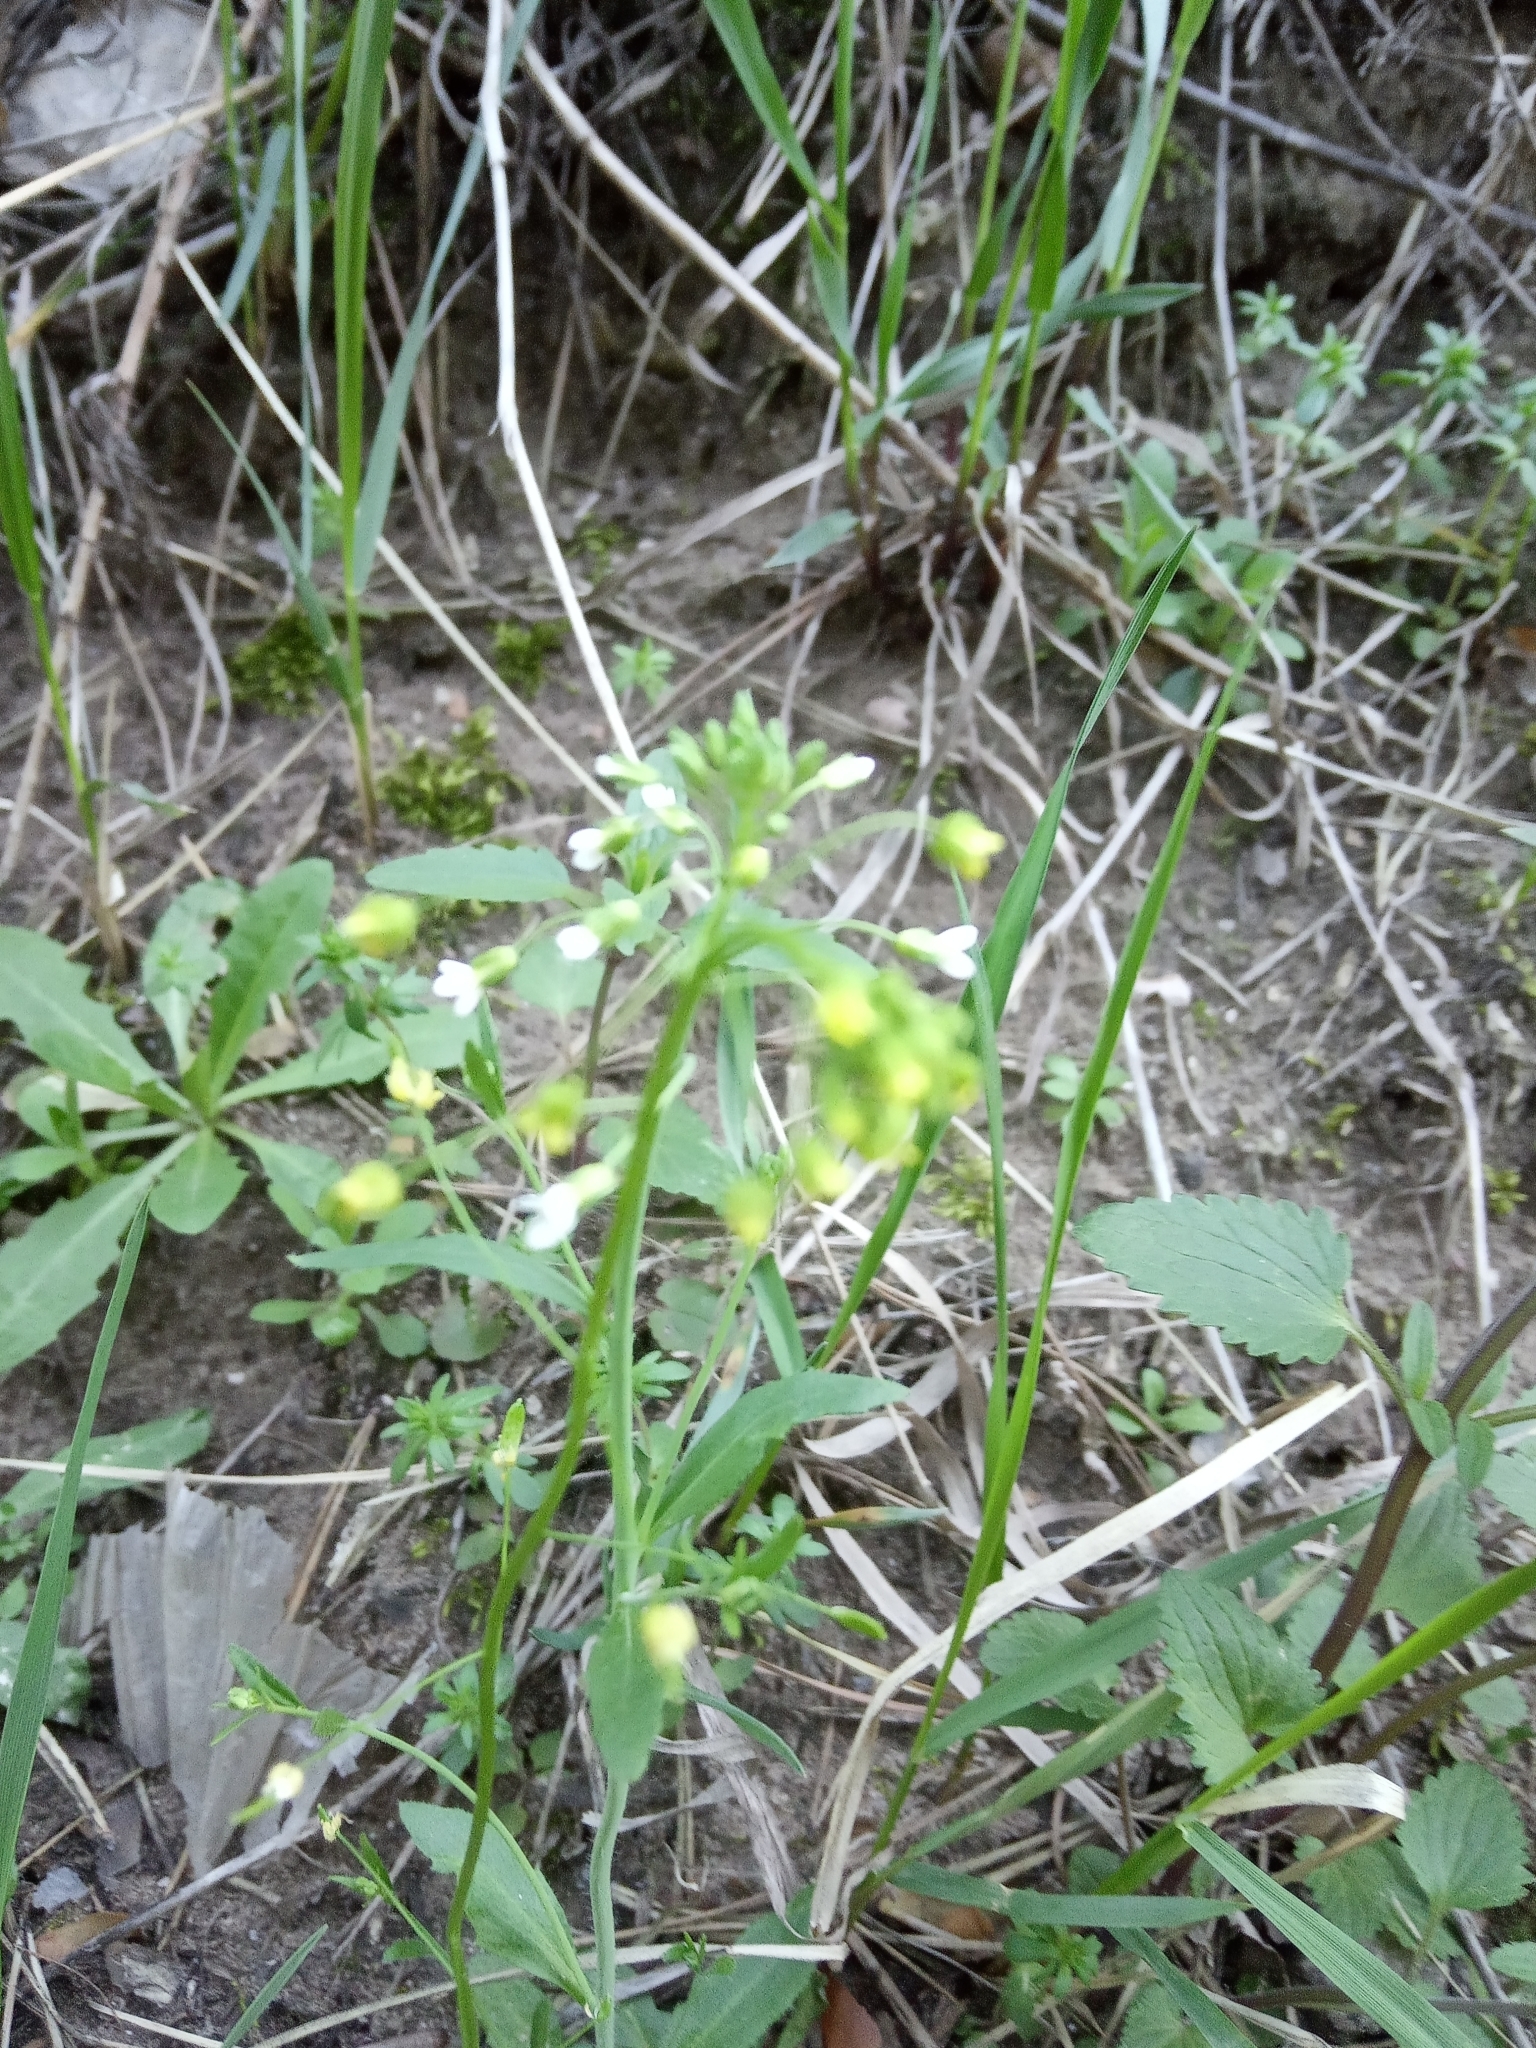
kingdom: Plantae
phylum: Tracheophyta
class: Magnoliopsida
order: Brassicales
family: Brassicaceae
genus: Draba
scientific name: Draba nemorosa
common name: Wood whitlow-grass
